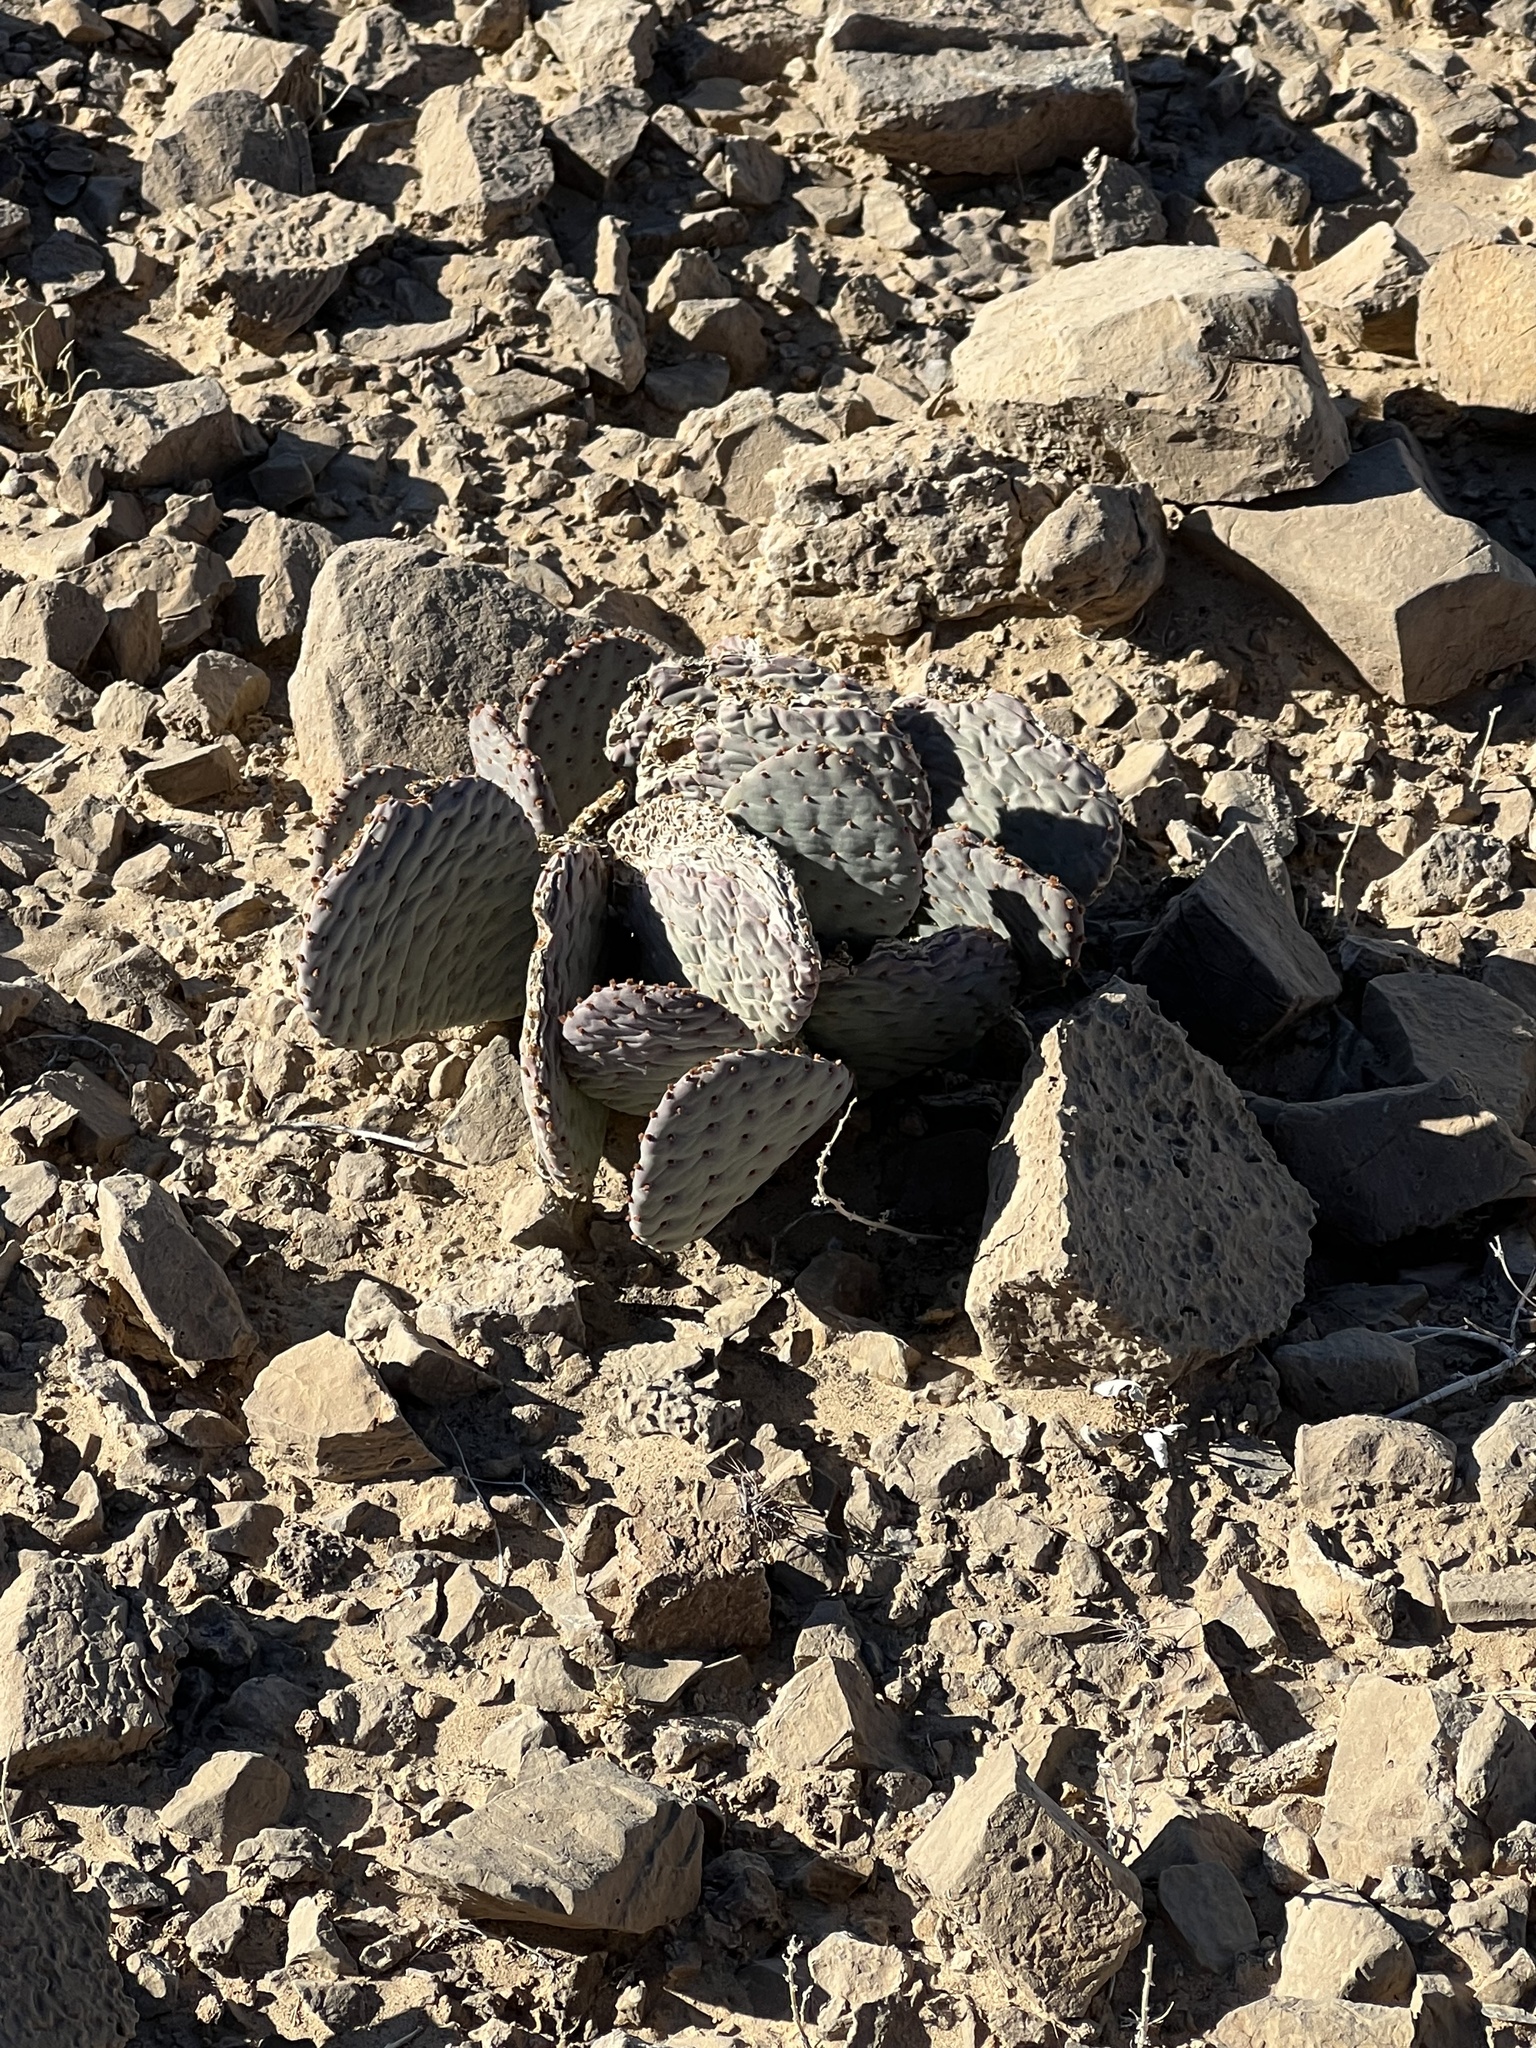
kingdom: Plantae
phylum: Tracheophyta
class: Magnoliopsida
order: Caryophyllales
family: Cactaceae
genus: Opuntia
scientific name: Opuntia basilaris
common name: Beavertail prickly-pear
